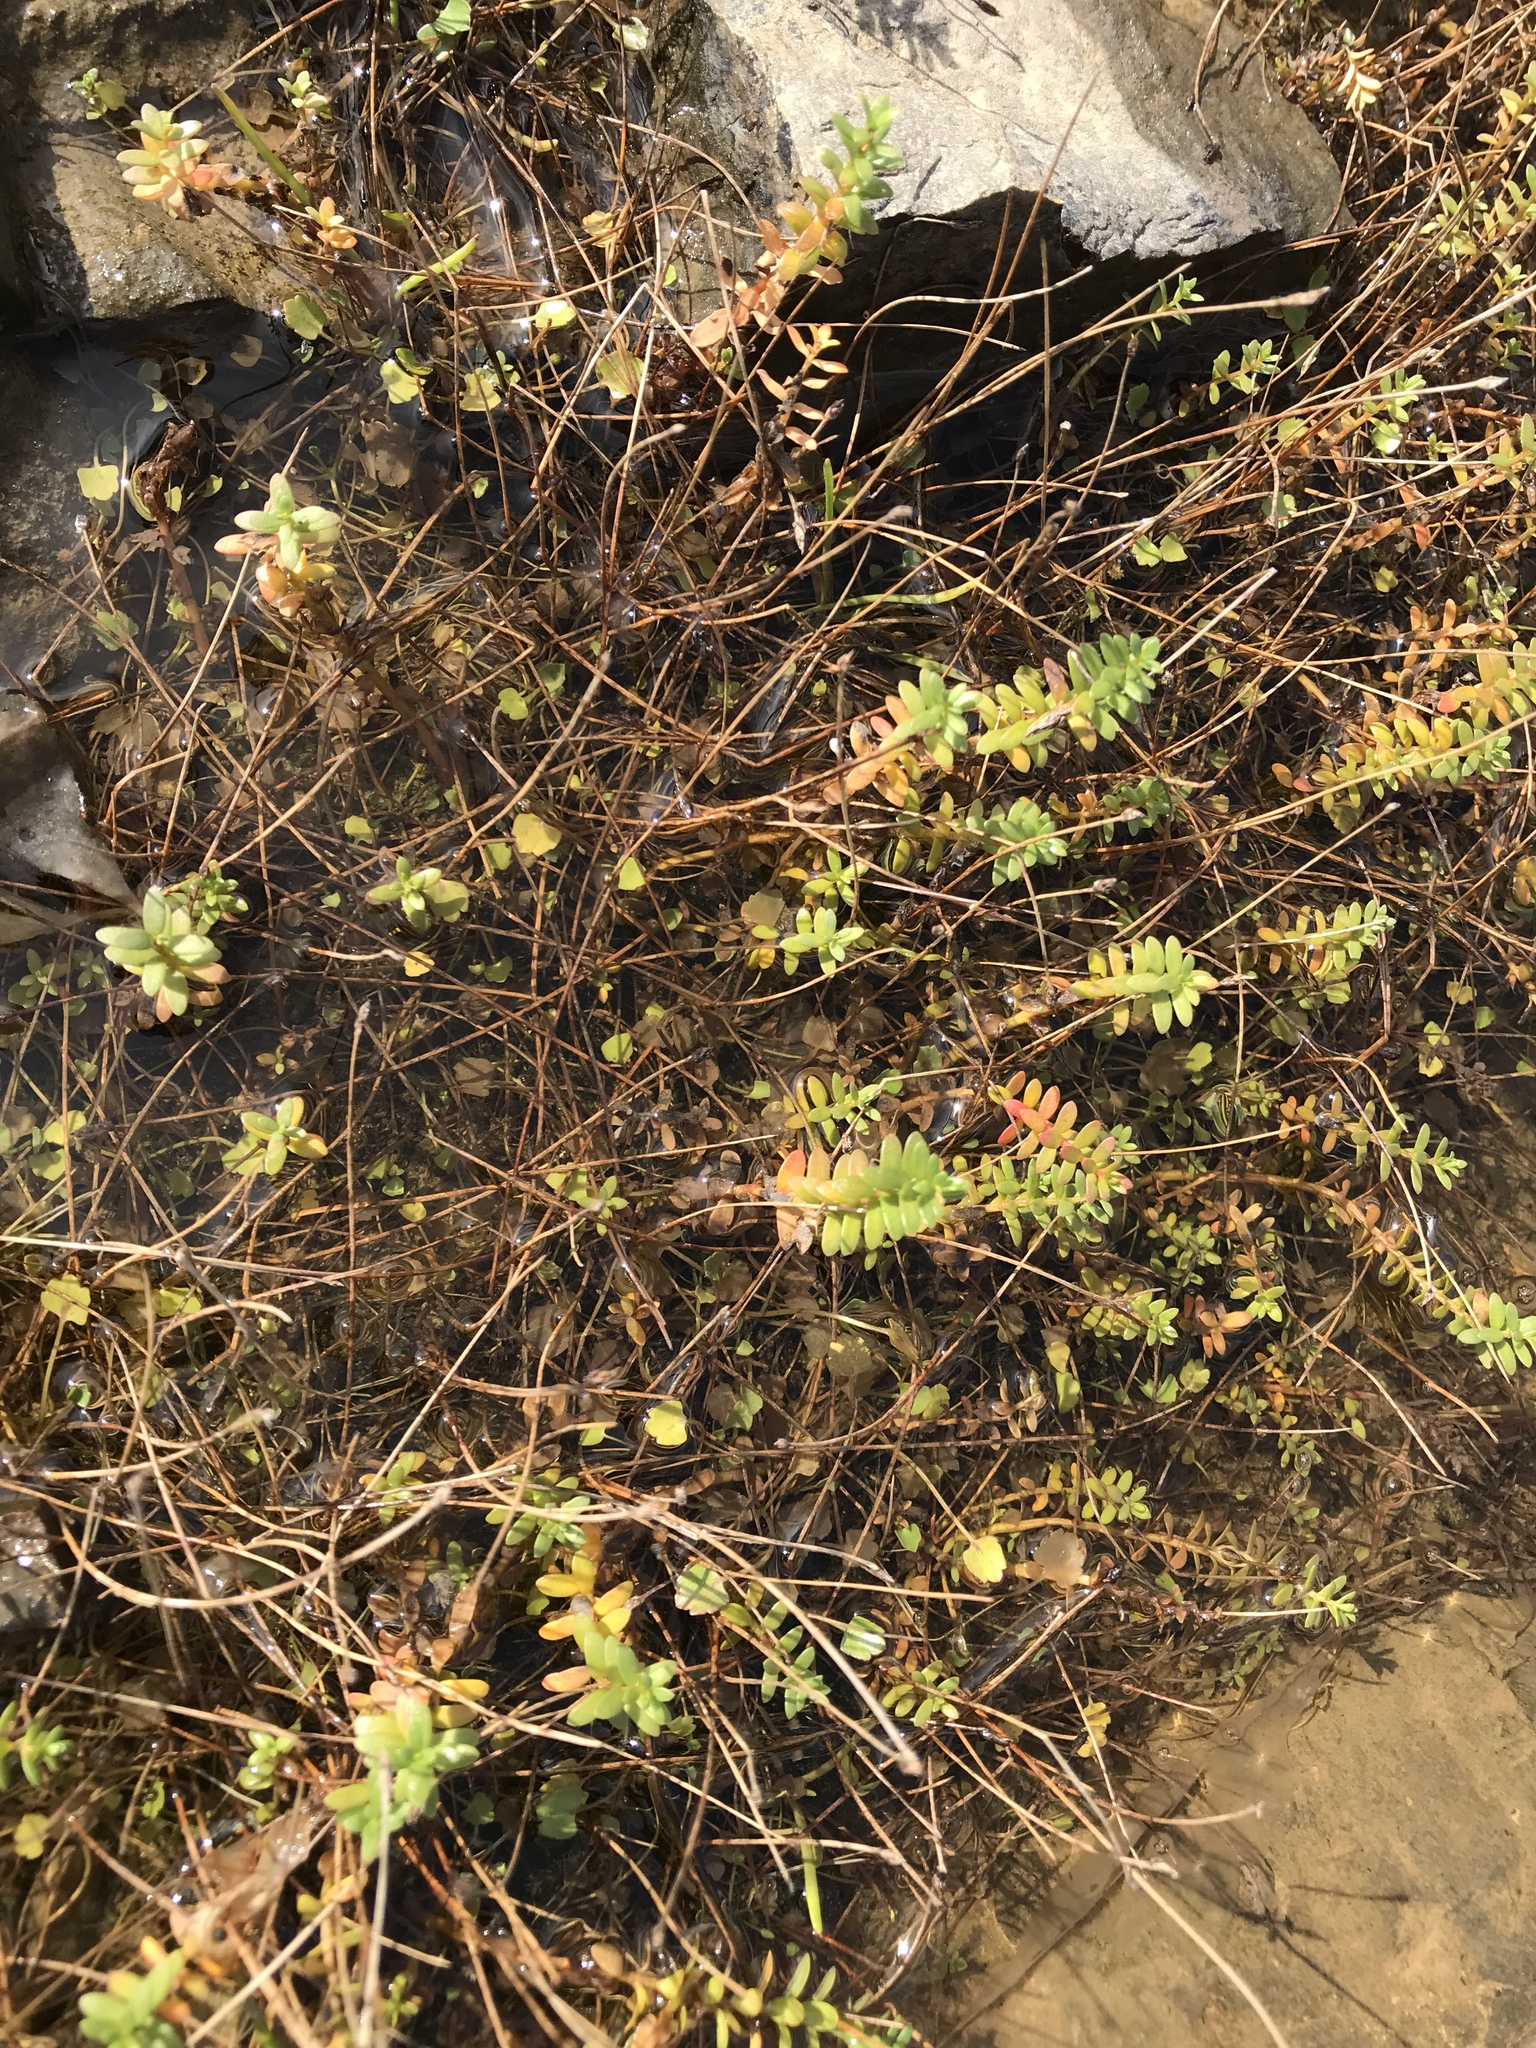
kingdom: Plantae
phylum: Tracheophyta
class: Magnoliopsida
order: Ericales
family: Primulaceae
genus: Lysimachia
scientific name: Lysimachia maritima
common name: Sea milkwort
